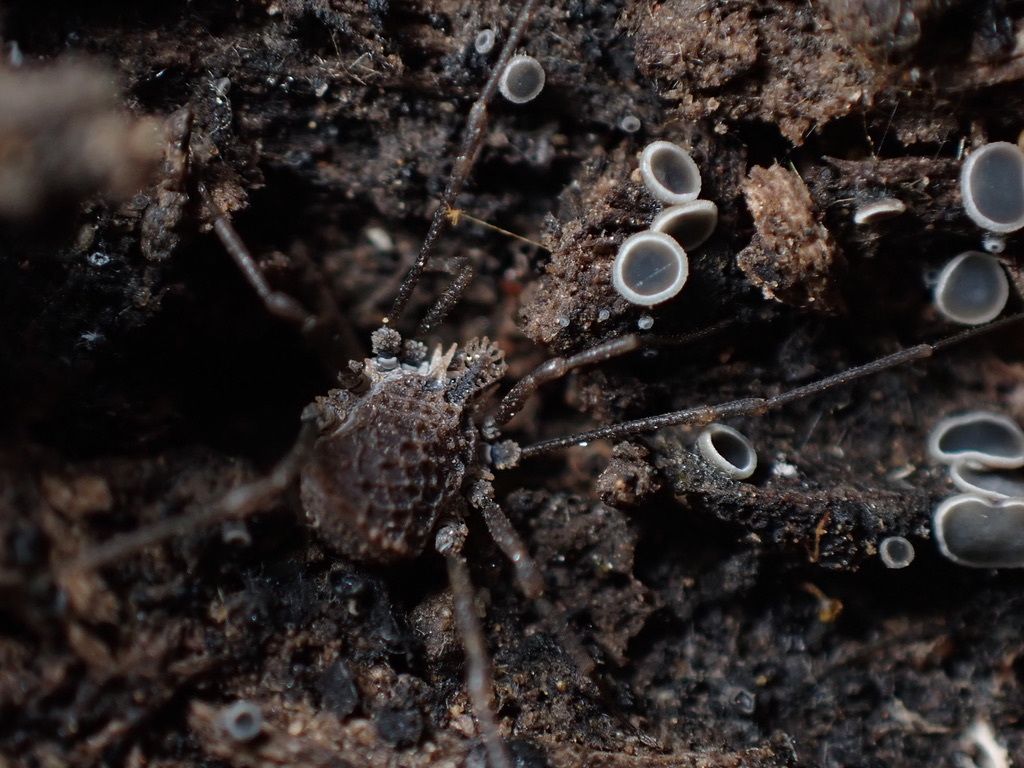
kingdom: Animalia
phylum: Arthropoda
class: Arachnida
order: Opiliones
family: Nemastomatidae
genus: Ortholasma
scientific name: Ortholasma rugosum
